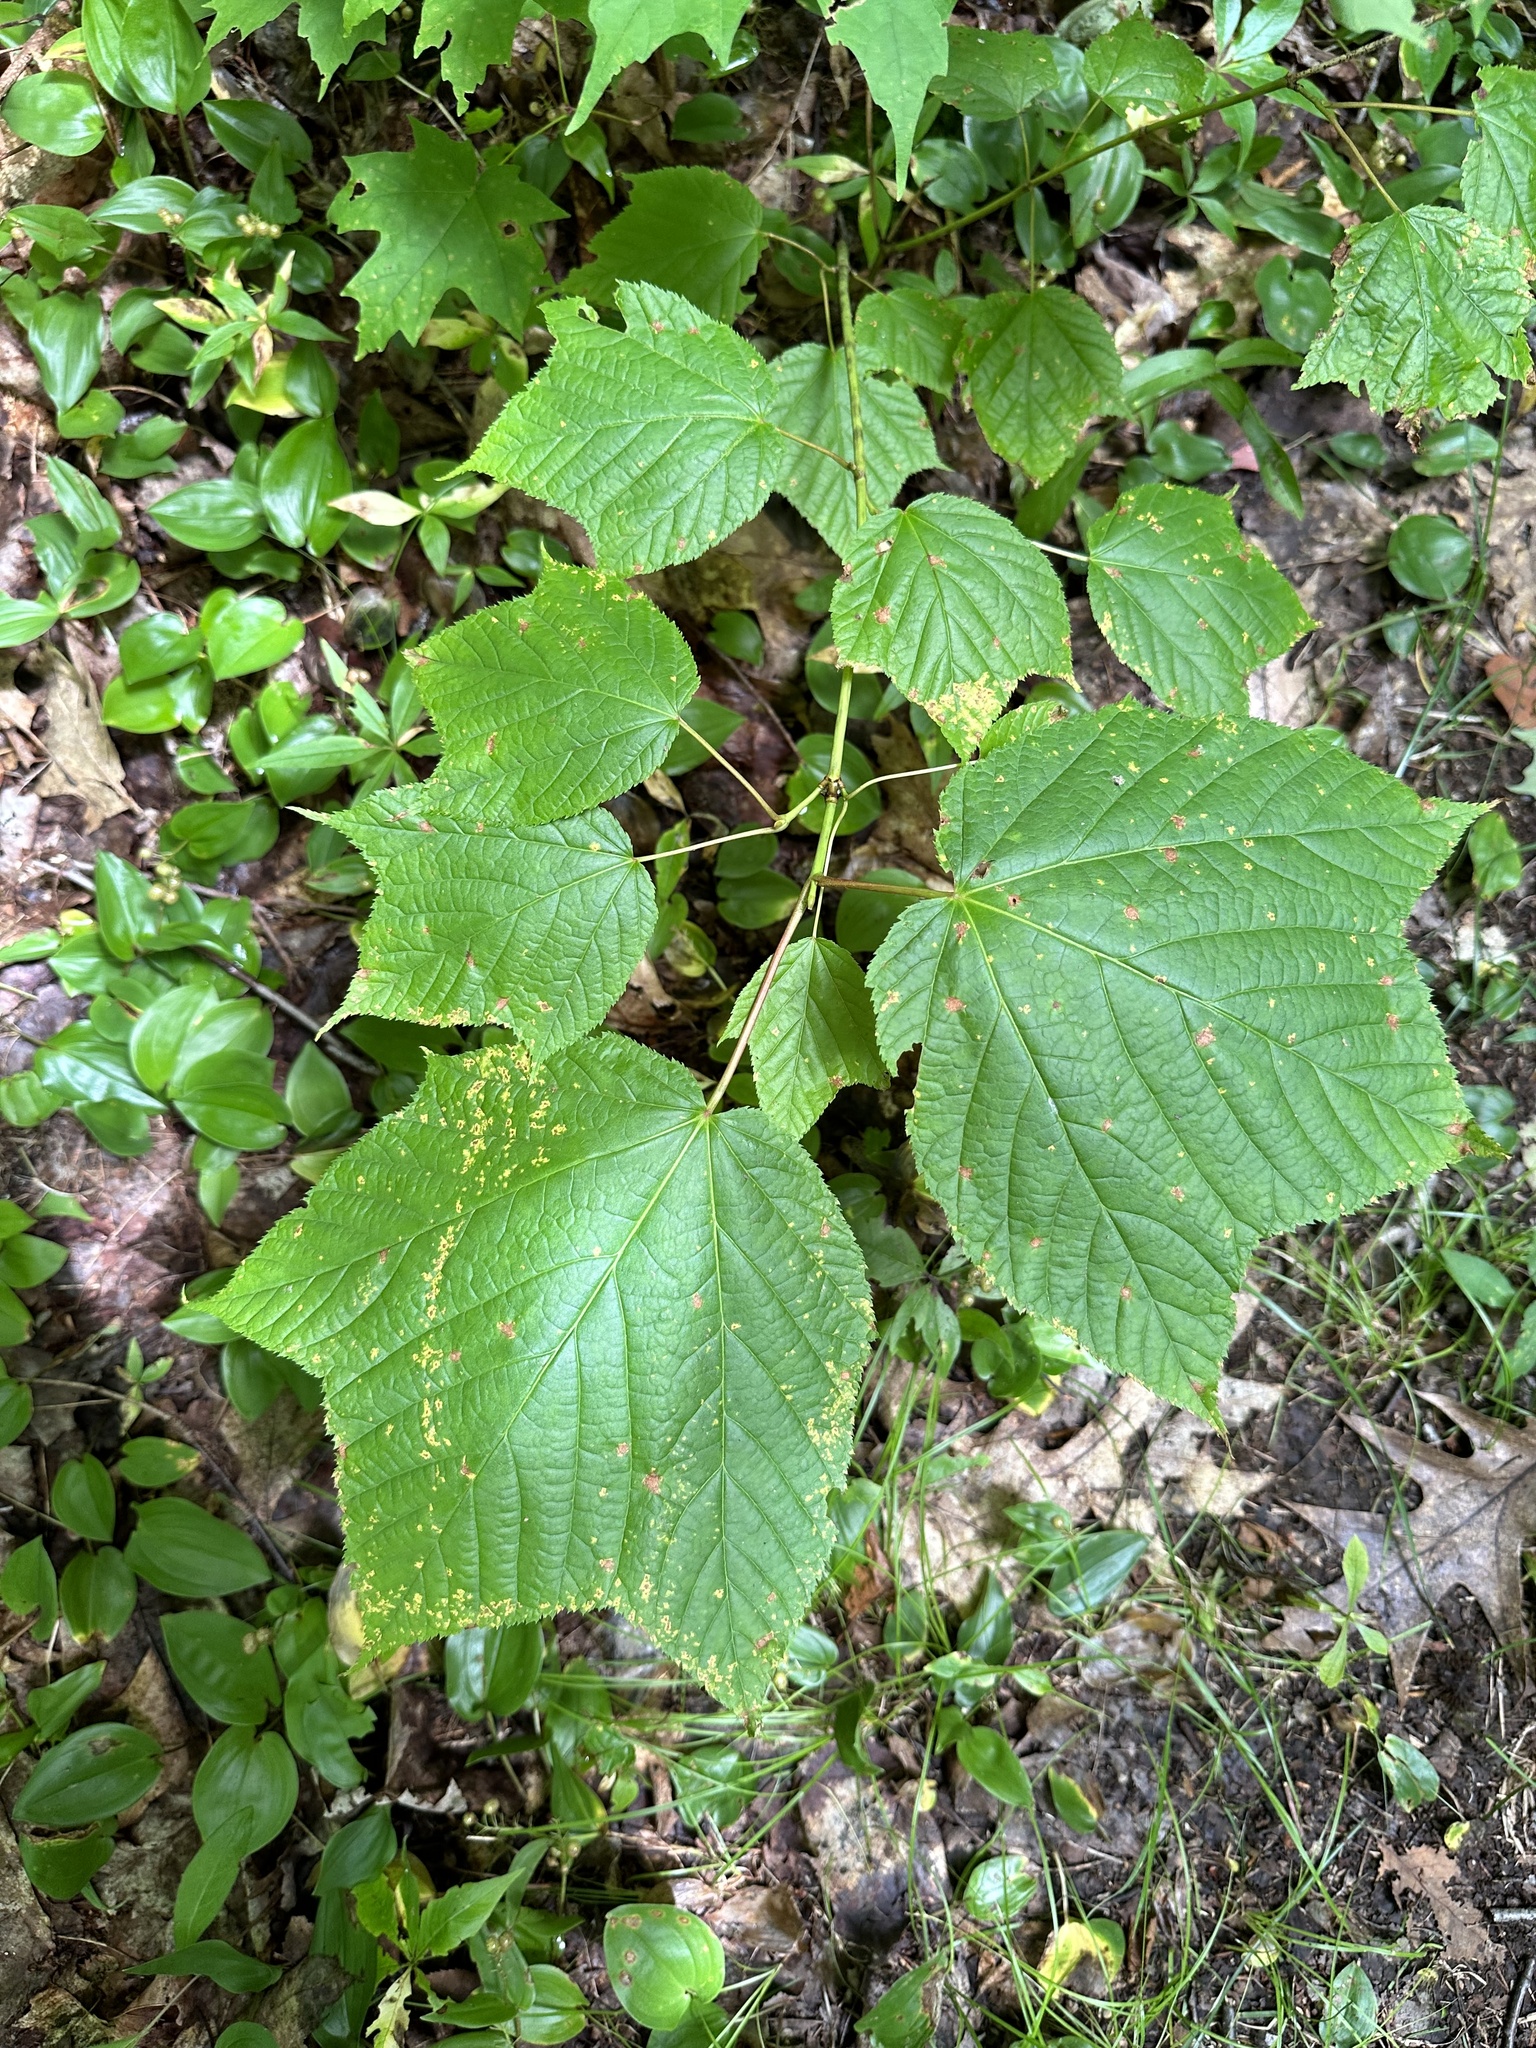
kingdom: Plantae
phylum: Tracheophyta
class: Magnoliopsida
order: Sapindales
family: Sapindaceae
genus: Acer
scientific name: Acer pensylvanicum
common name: Moosewood
